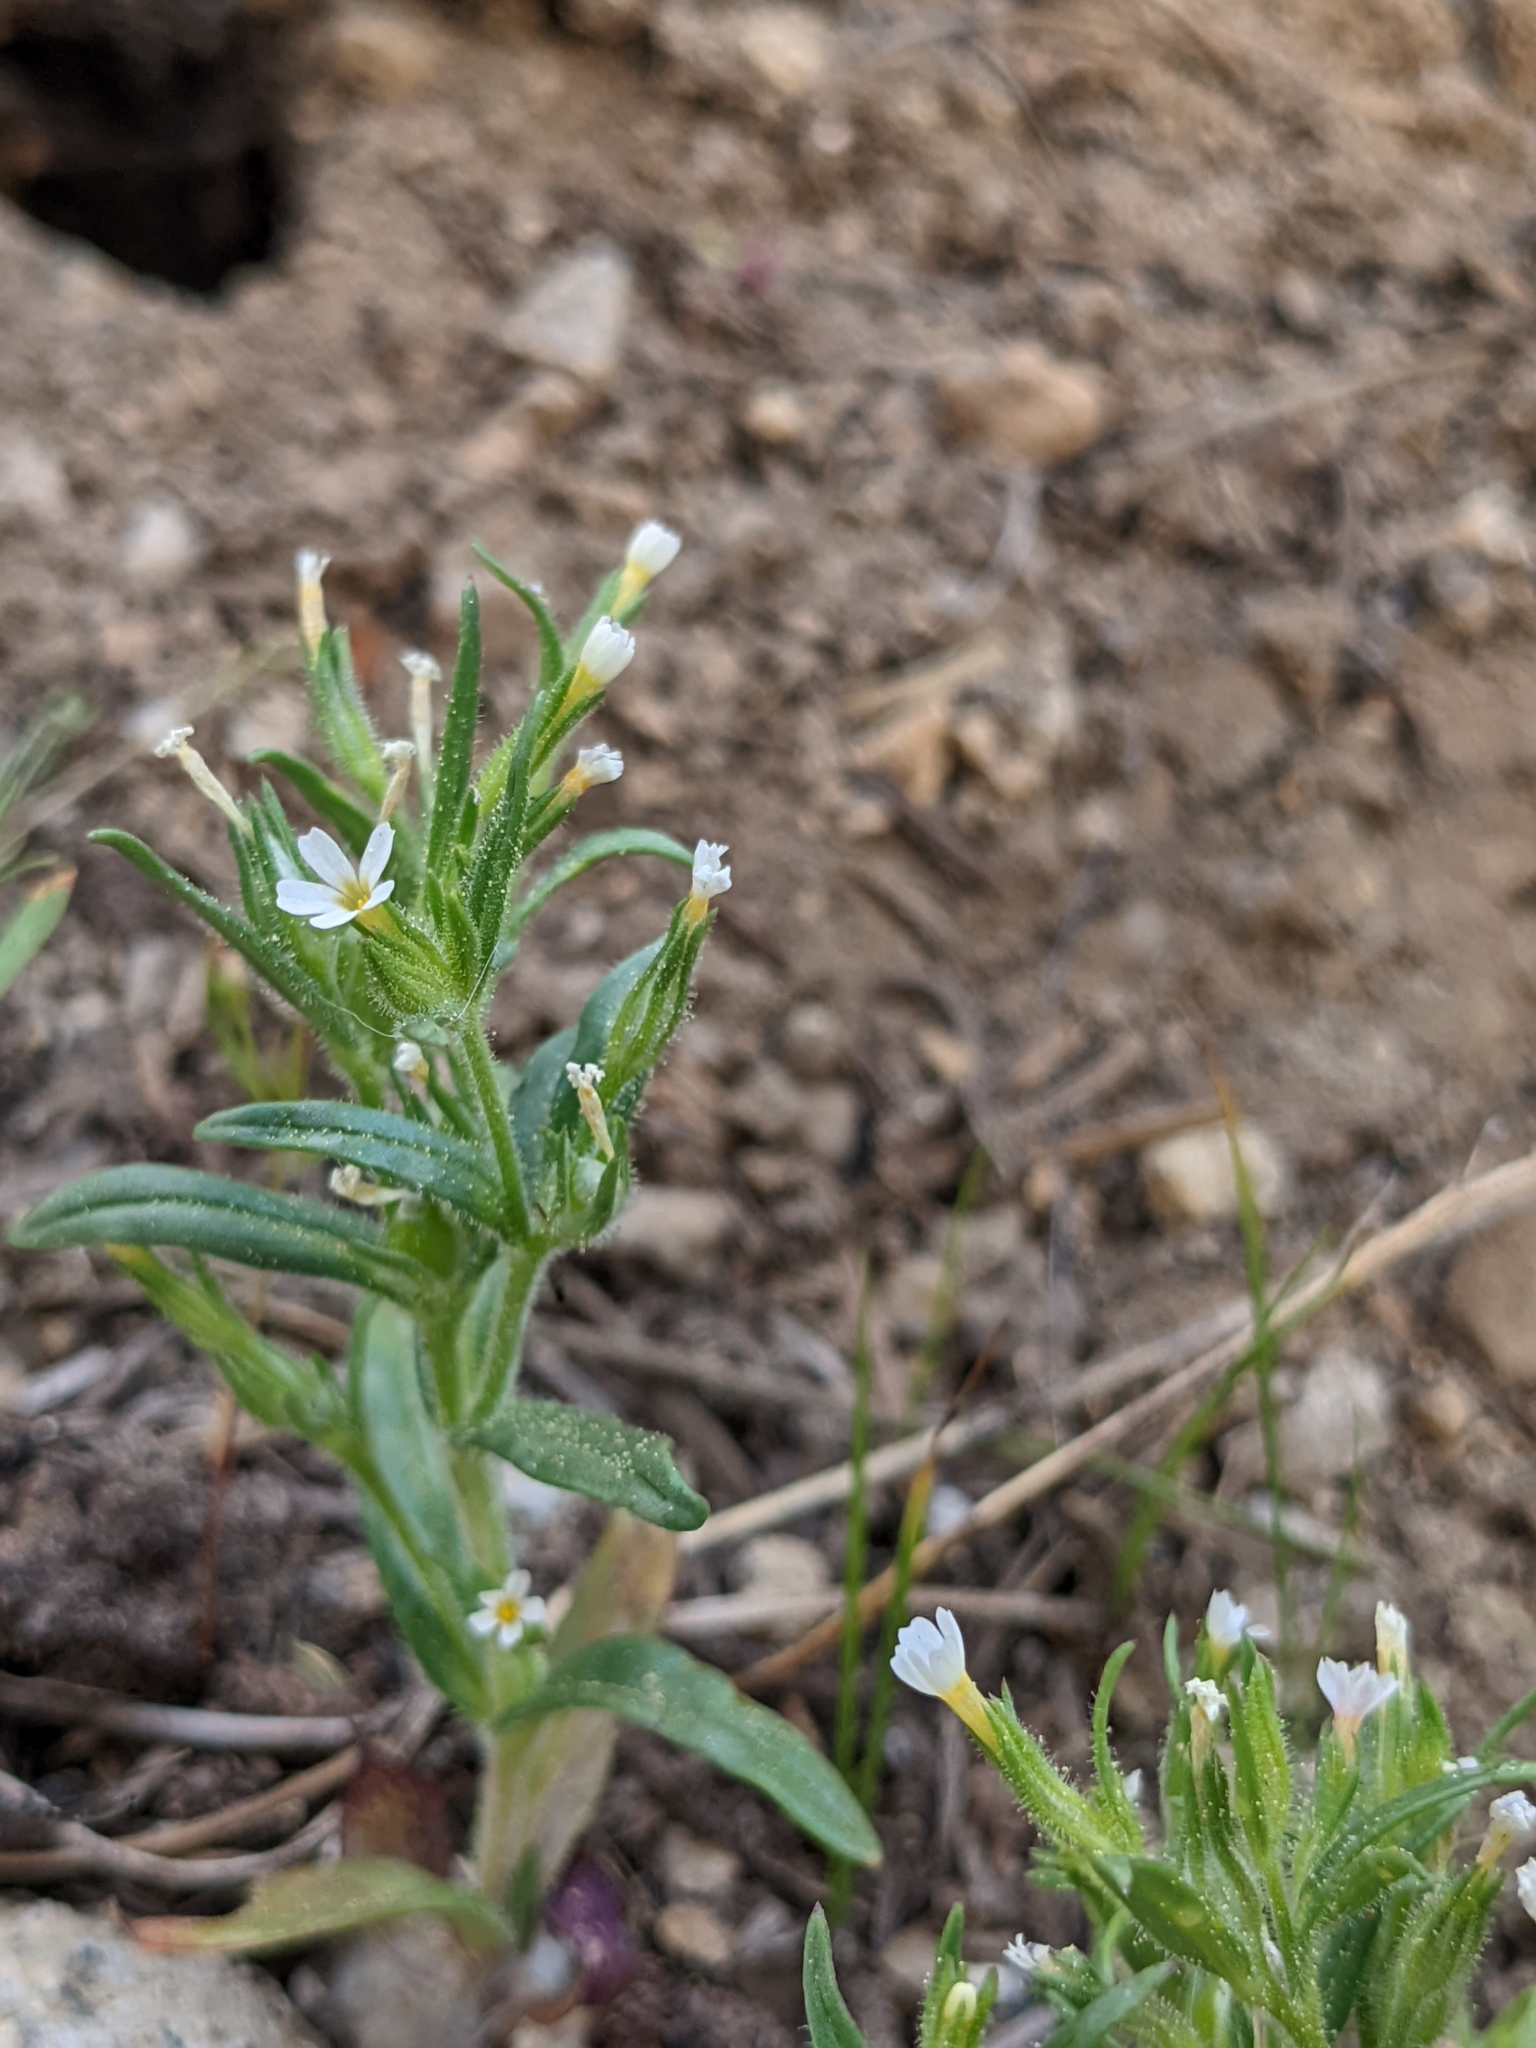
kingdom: Plantae
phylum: Tracheophyta
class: Magnoliopsida
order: Ericales
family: Polemoniaceae
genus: Phlox
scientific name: Phlox gracilis
